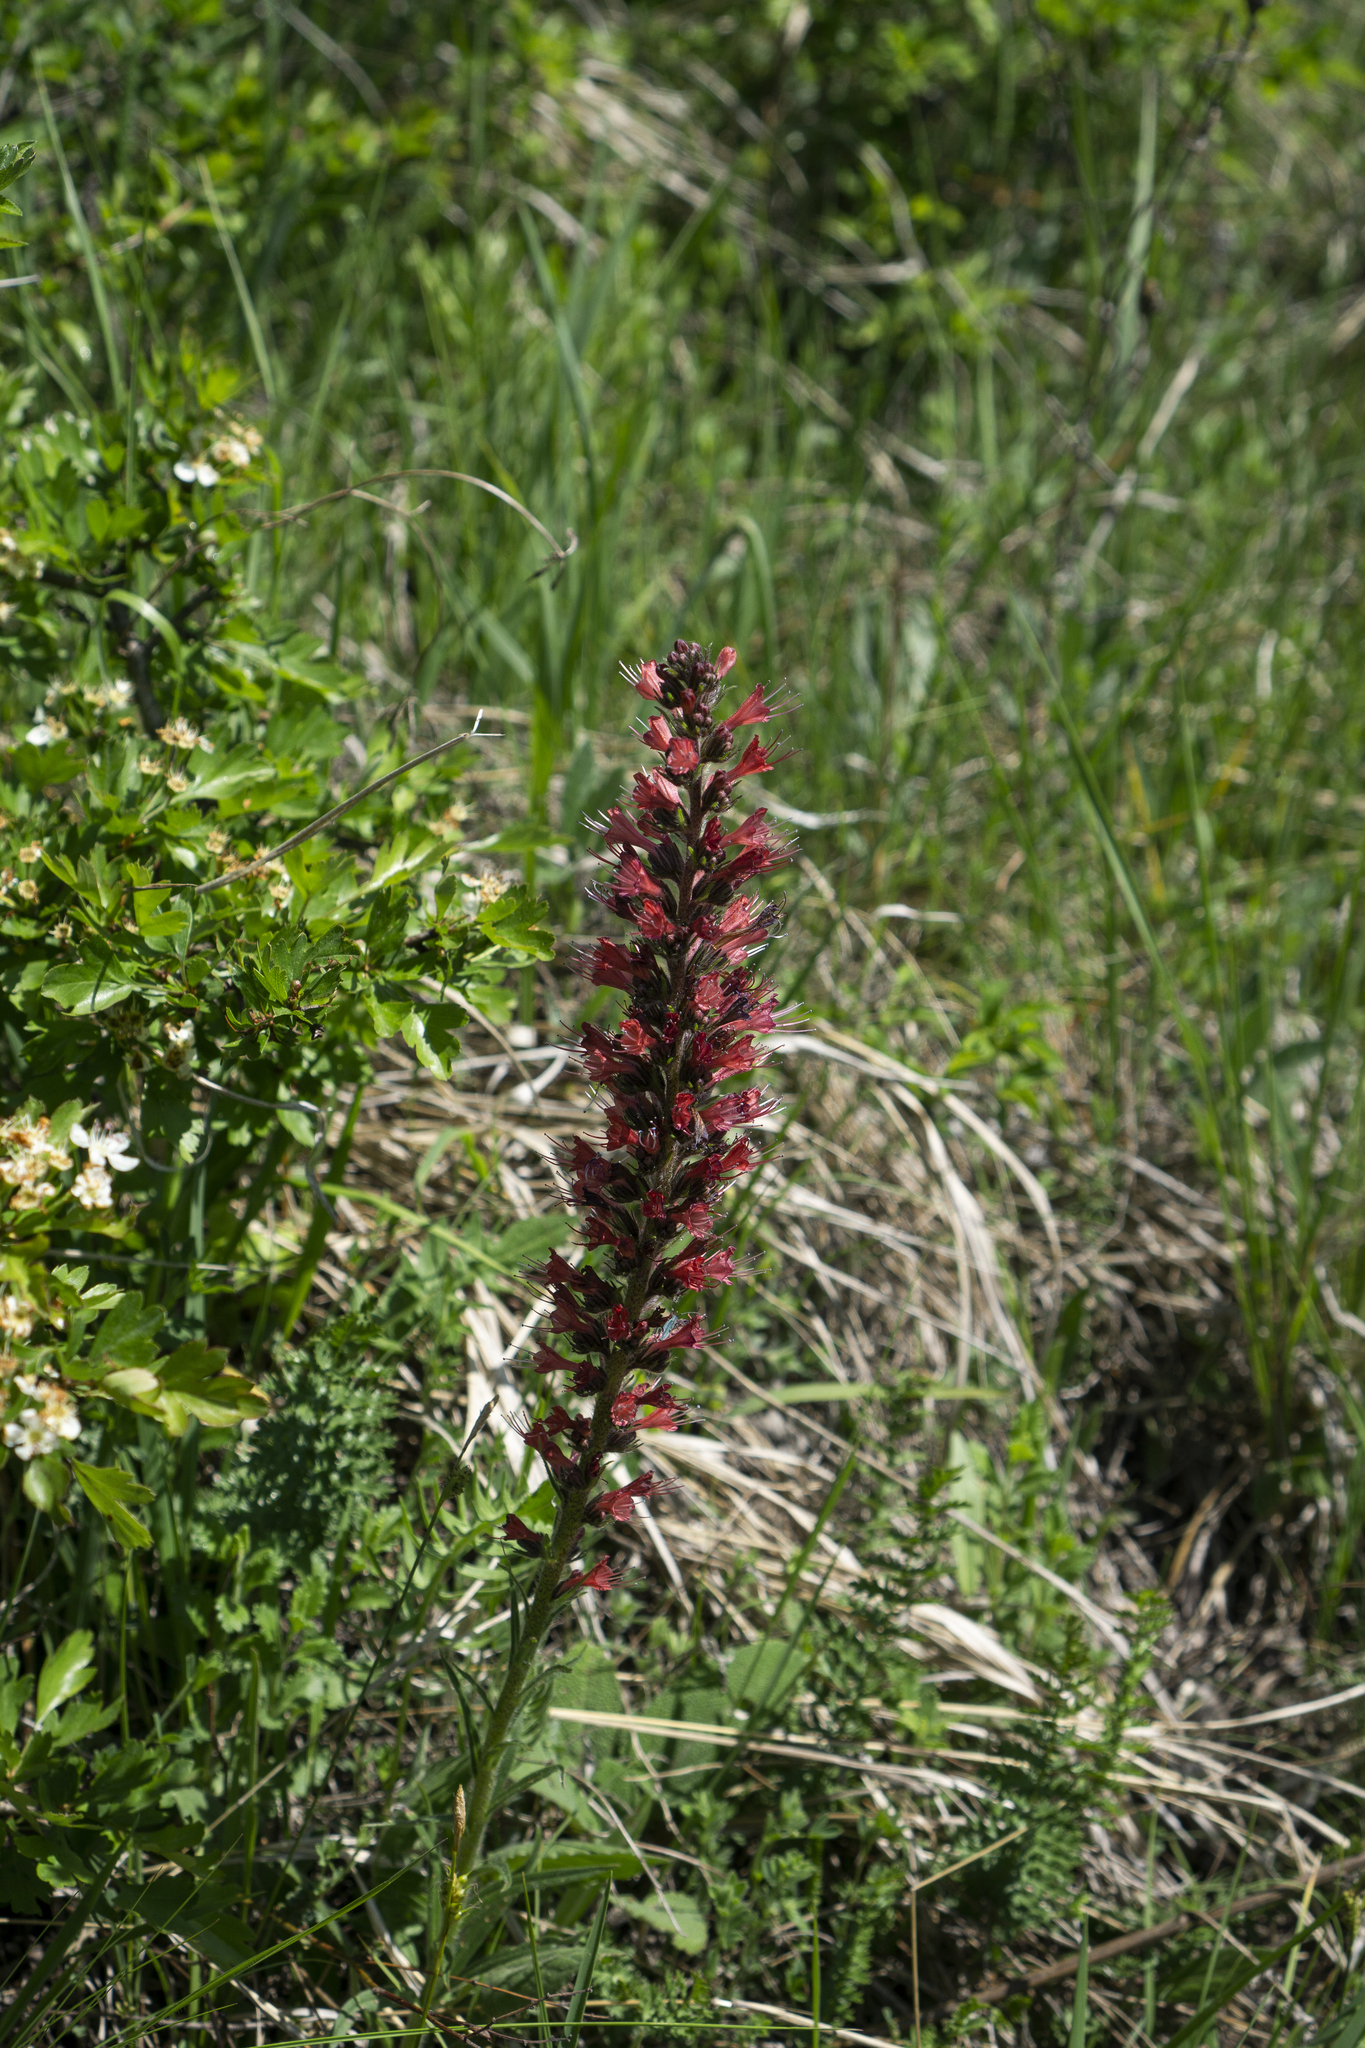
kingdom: Plantae
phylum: Tracheophyta
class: Magnoliopsida
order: Boraginales
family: Boraginaceae
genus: Pontechium
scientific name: Pontechium maculatum
